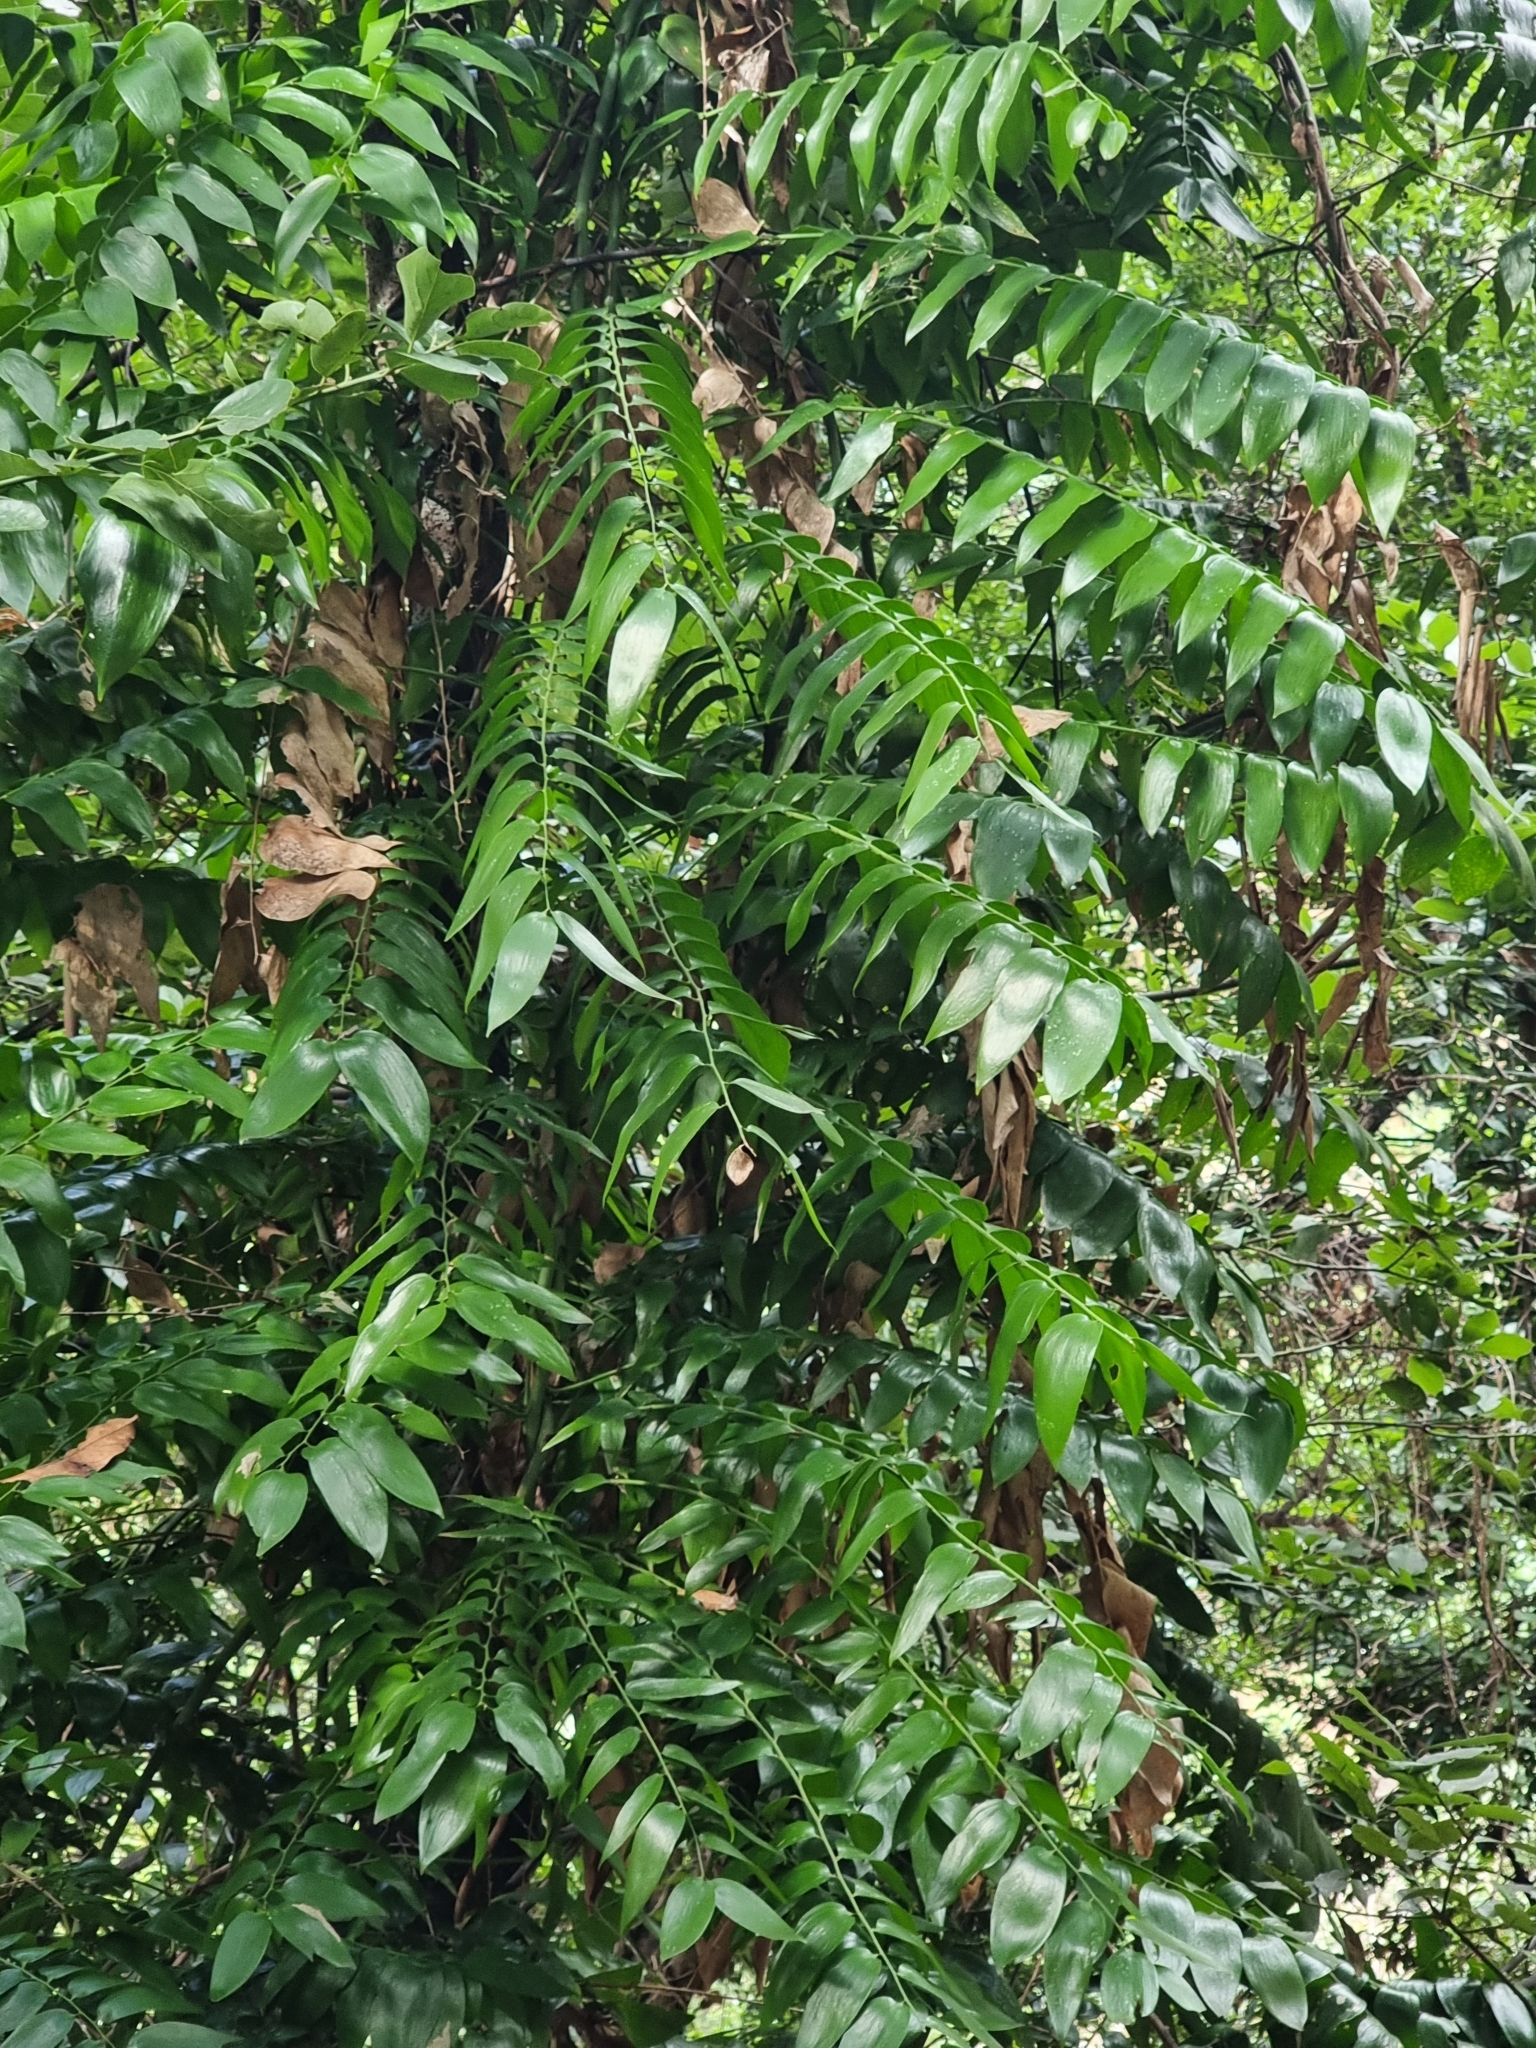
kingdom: Plantae
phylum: Tracheophyta
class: Liliopsida
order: Asparagales
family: Asparagaceae
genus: Semele
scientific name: Semele androgyna
